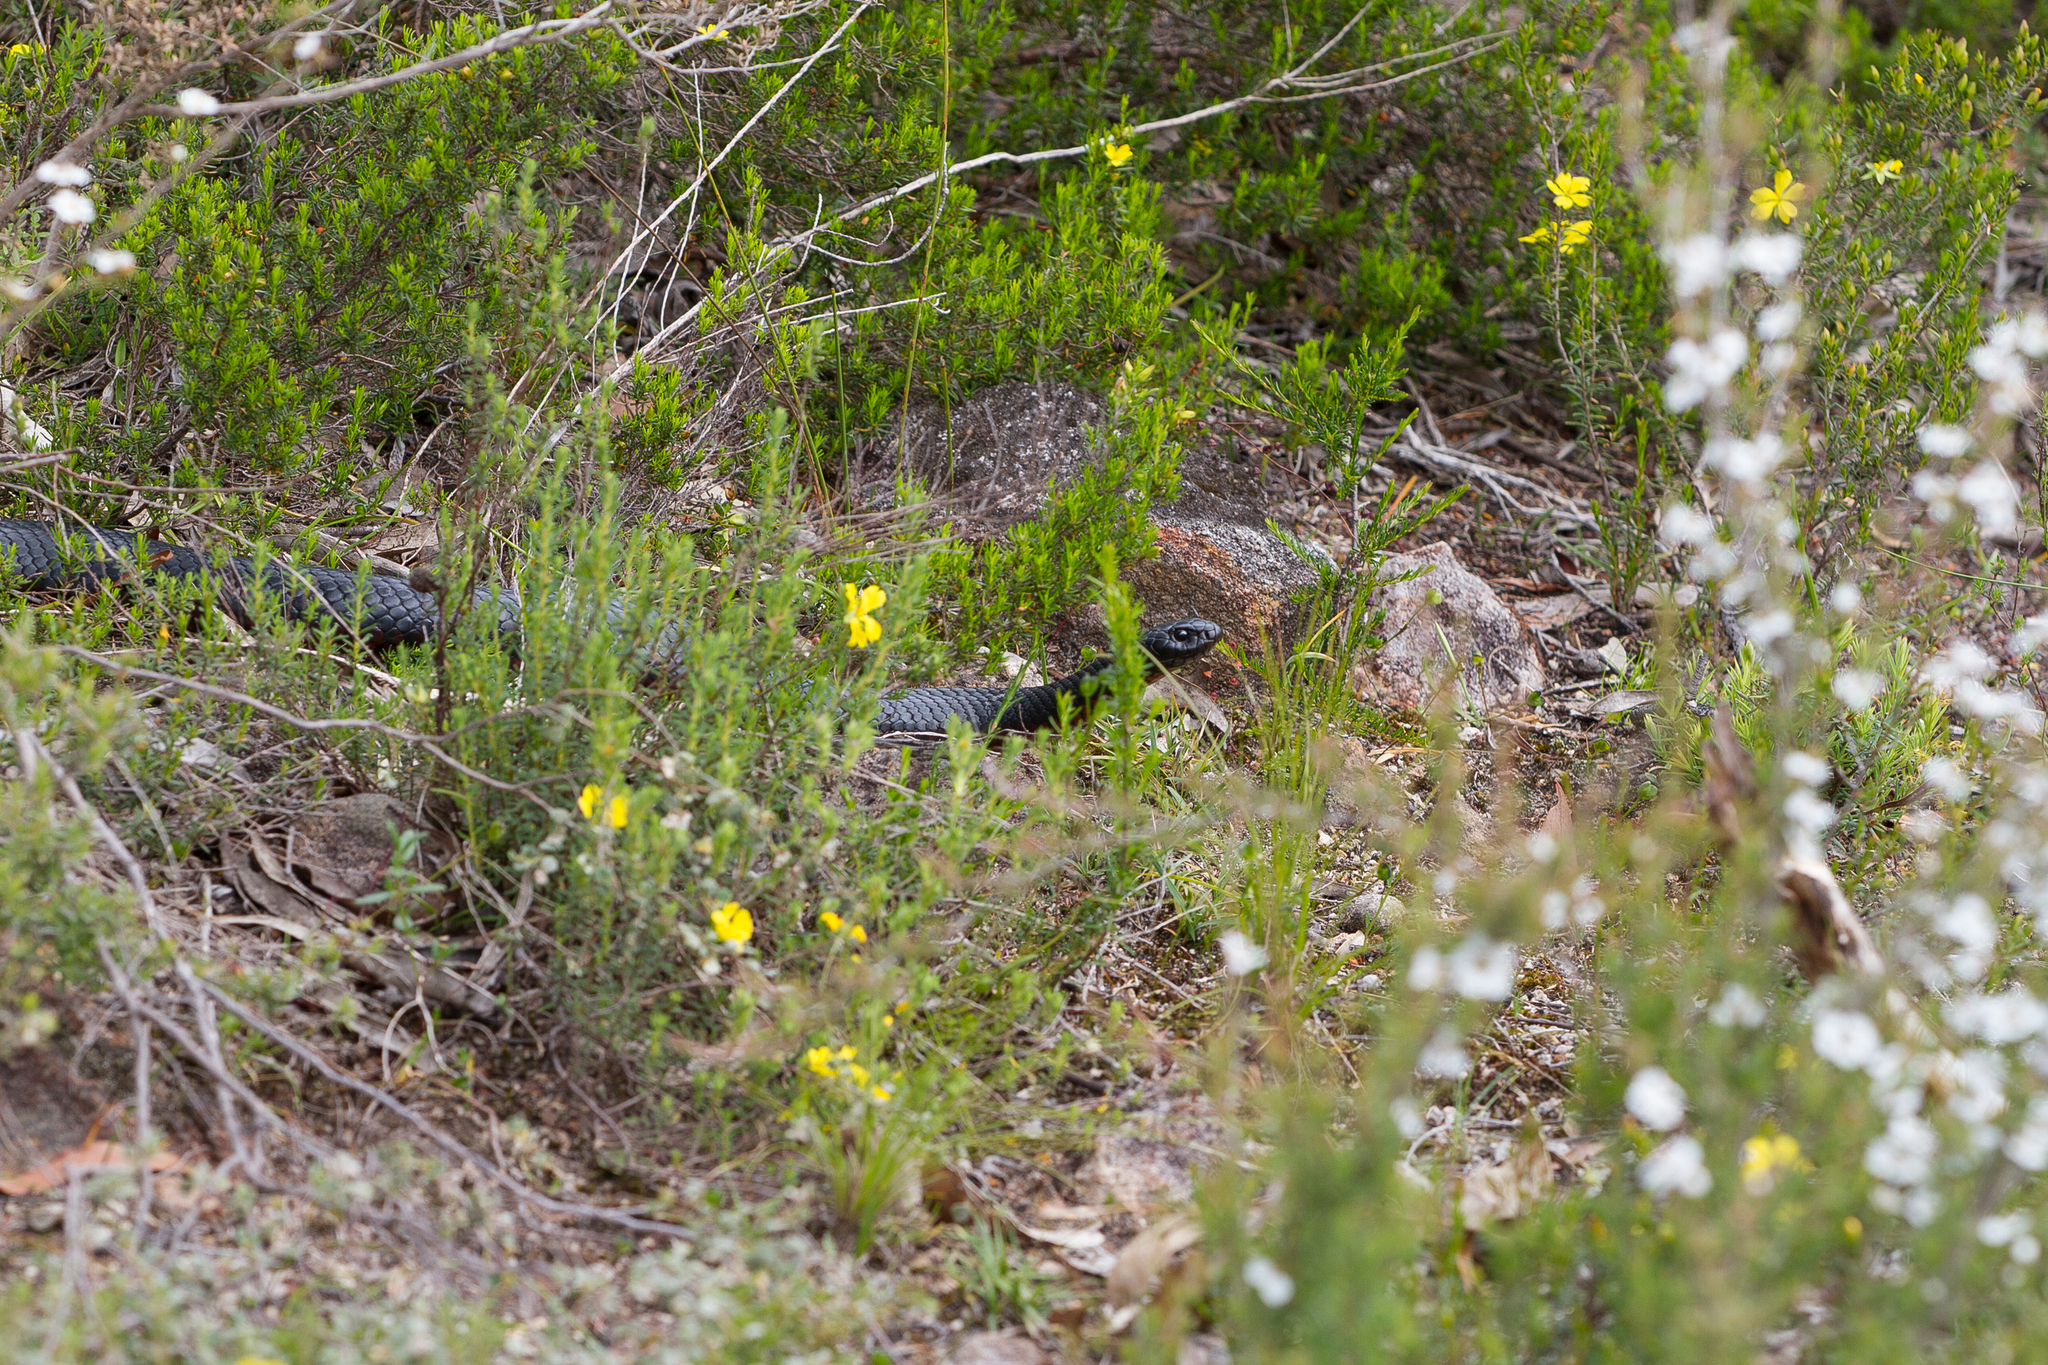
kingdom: Animalia
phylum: Chordata
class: Squamata
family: Elapidae
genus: Pseudechis
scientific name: Pseudechis porphyriacus
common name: Australian black snake
